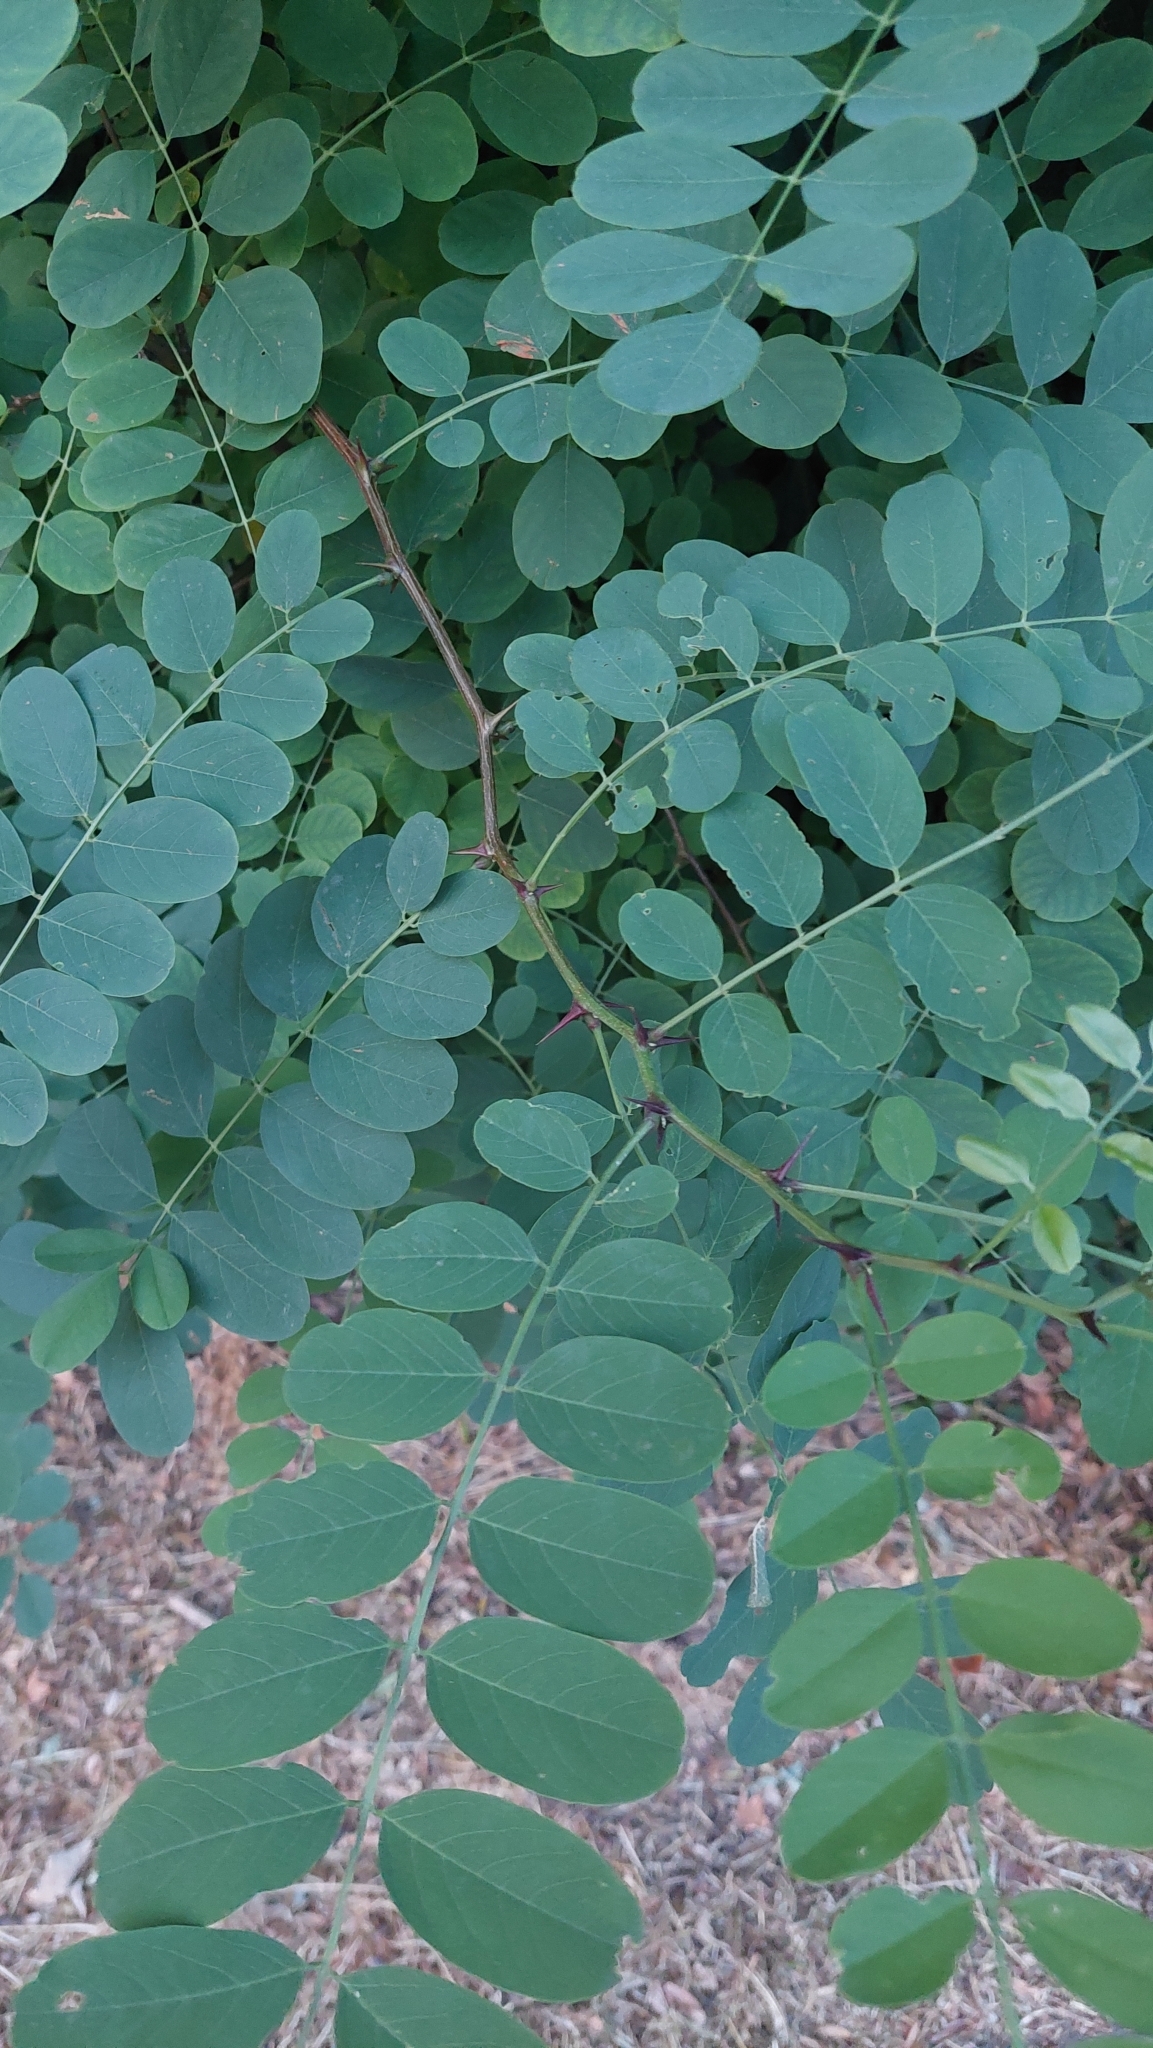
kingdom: Plantae
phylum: Tracheophyta
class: Magnoliopsida
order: Fabales
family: Fabaceae
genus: Robinia
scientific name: Robinia pseudoacacia
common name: Black locust
